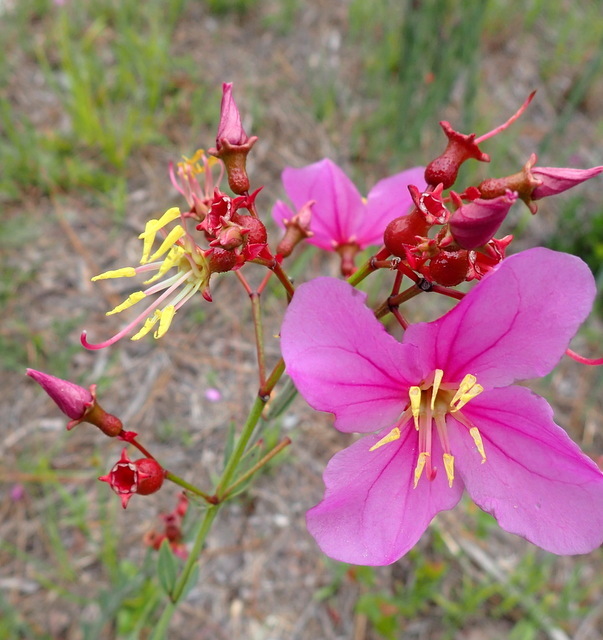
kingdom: Plantae
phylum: Tracheophyta
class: Magnoliopsida
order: Myrtales
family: Melastomataceae
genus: Rhexia
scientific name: Rhexia alifanus
